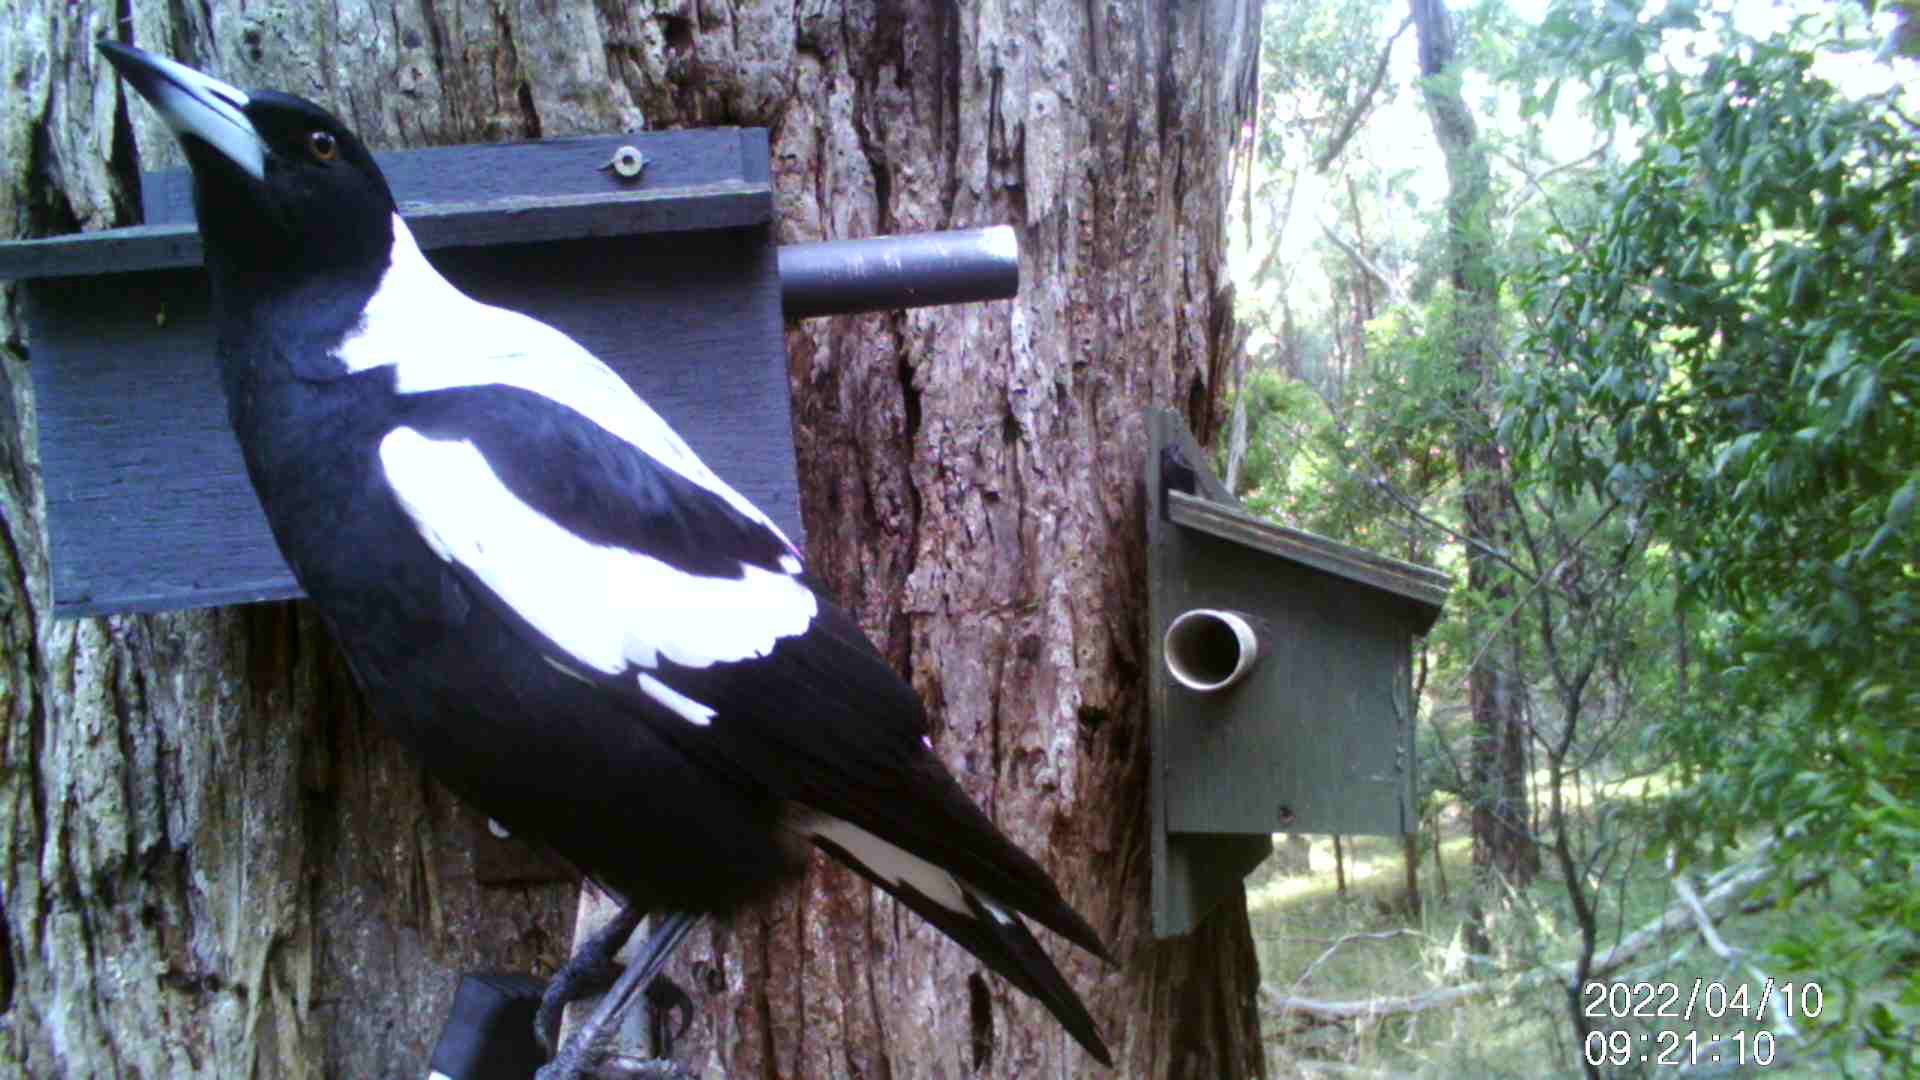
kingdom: Animalia
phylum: Chordata
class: Aves
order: Passeriformes
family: Cracticidae
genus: Gymnorhina
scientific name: Gymnorhina tibicen
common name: Australian magpie
